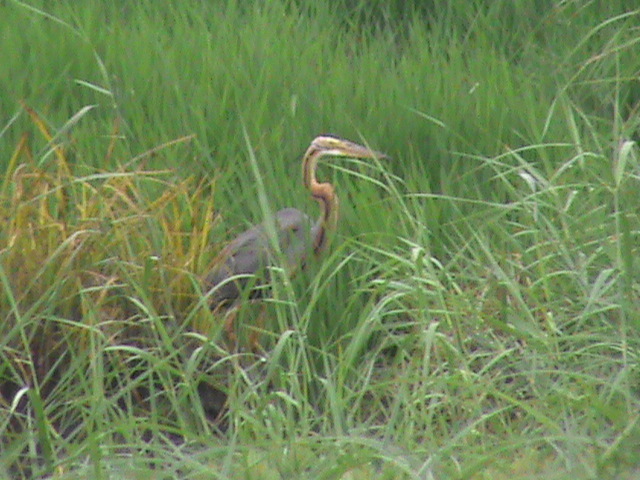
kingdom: Animalia
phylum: Chordata
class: Aves
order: Pelecaniformes
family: Ardeidae
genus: Ardea
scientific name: Ardea purpurea
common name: Purple heron
